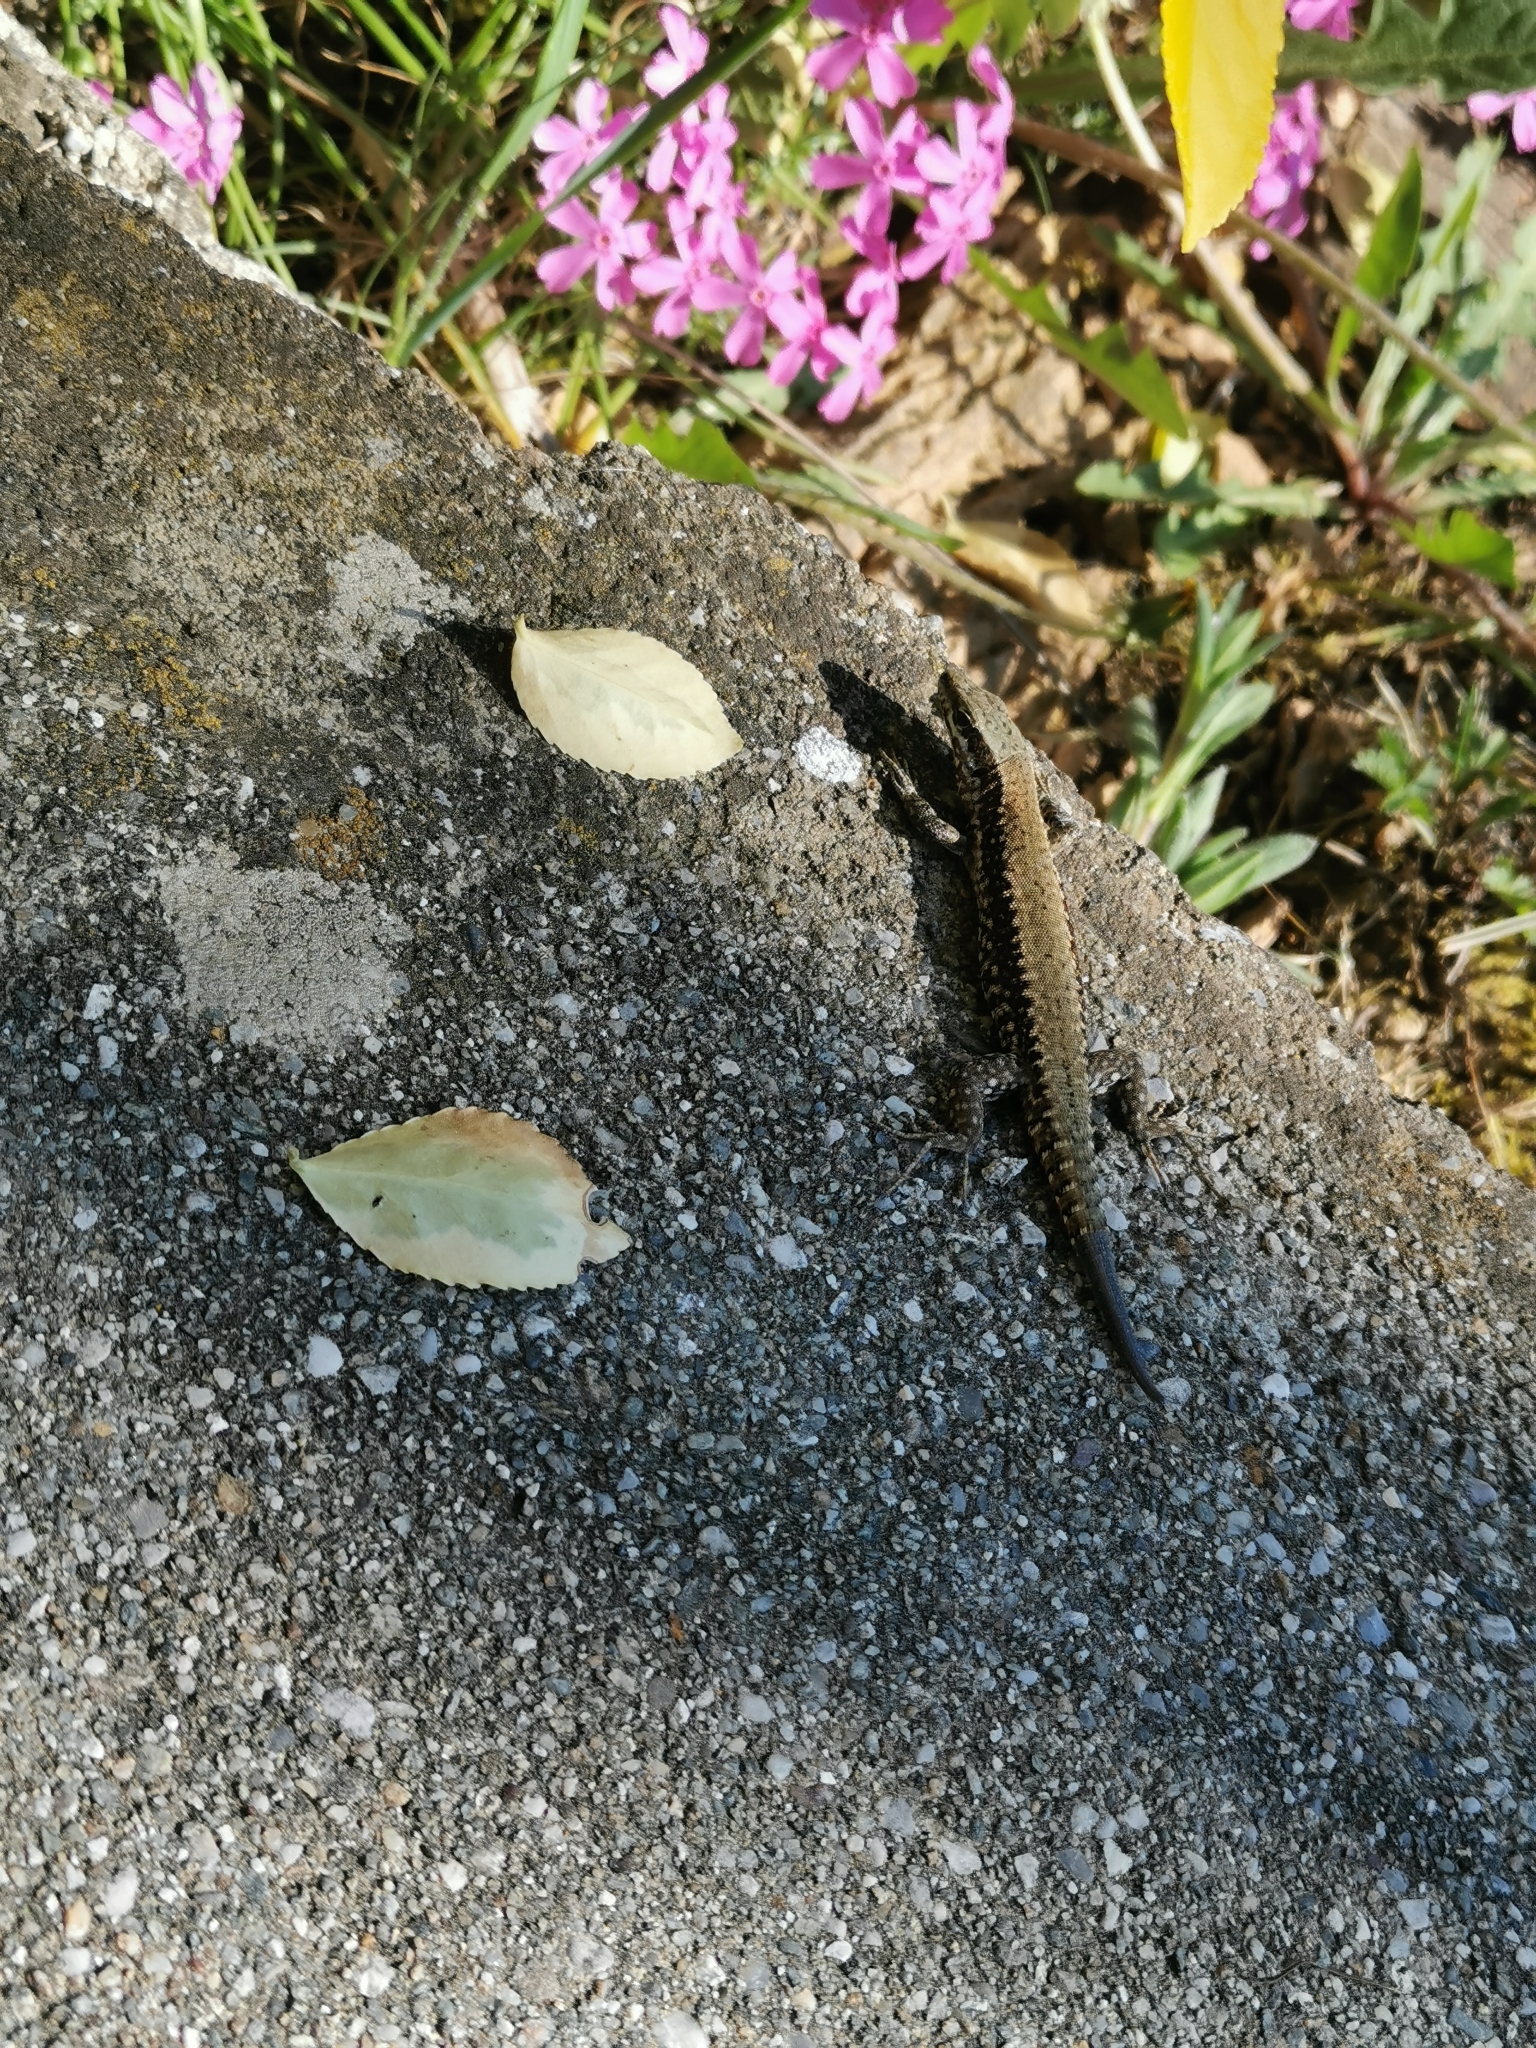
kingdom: Animalia
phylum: Chordata
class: Squamata
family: Lacertidae
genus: Podarcis
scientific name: Podarcis muralis
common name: Common wall lizard
